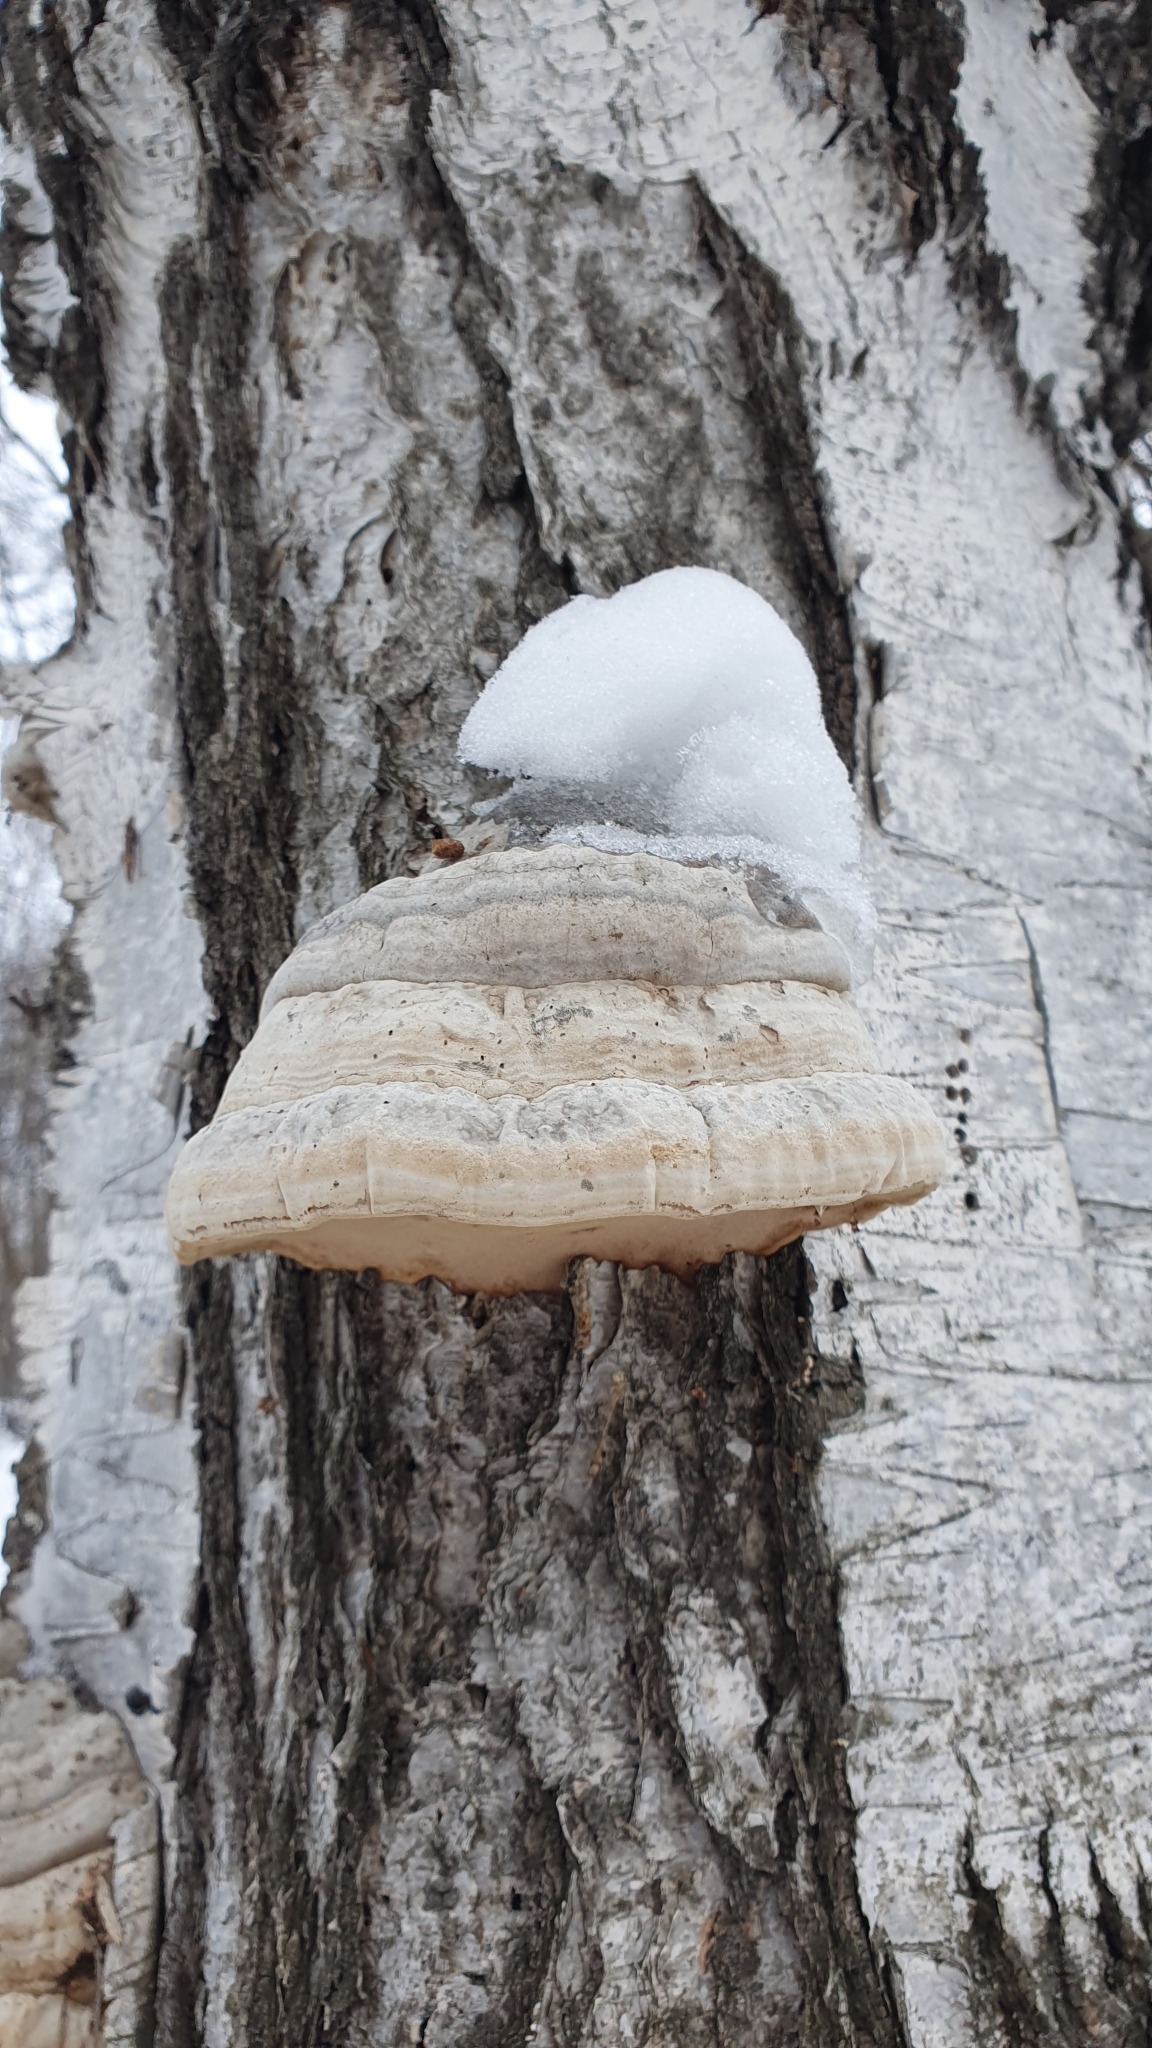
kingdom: Fungi
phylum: Basidiomycota
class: Agaricomycetes
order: Polyporales
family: Polyporaceae
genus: Fomes
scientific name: Fomes fomentarius
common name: Hoof fungus
